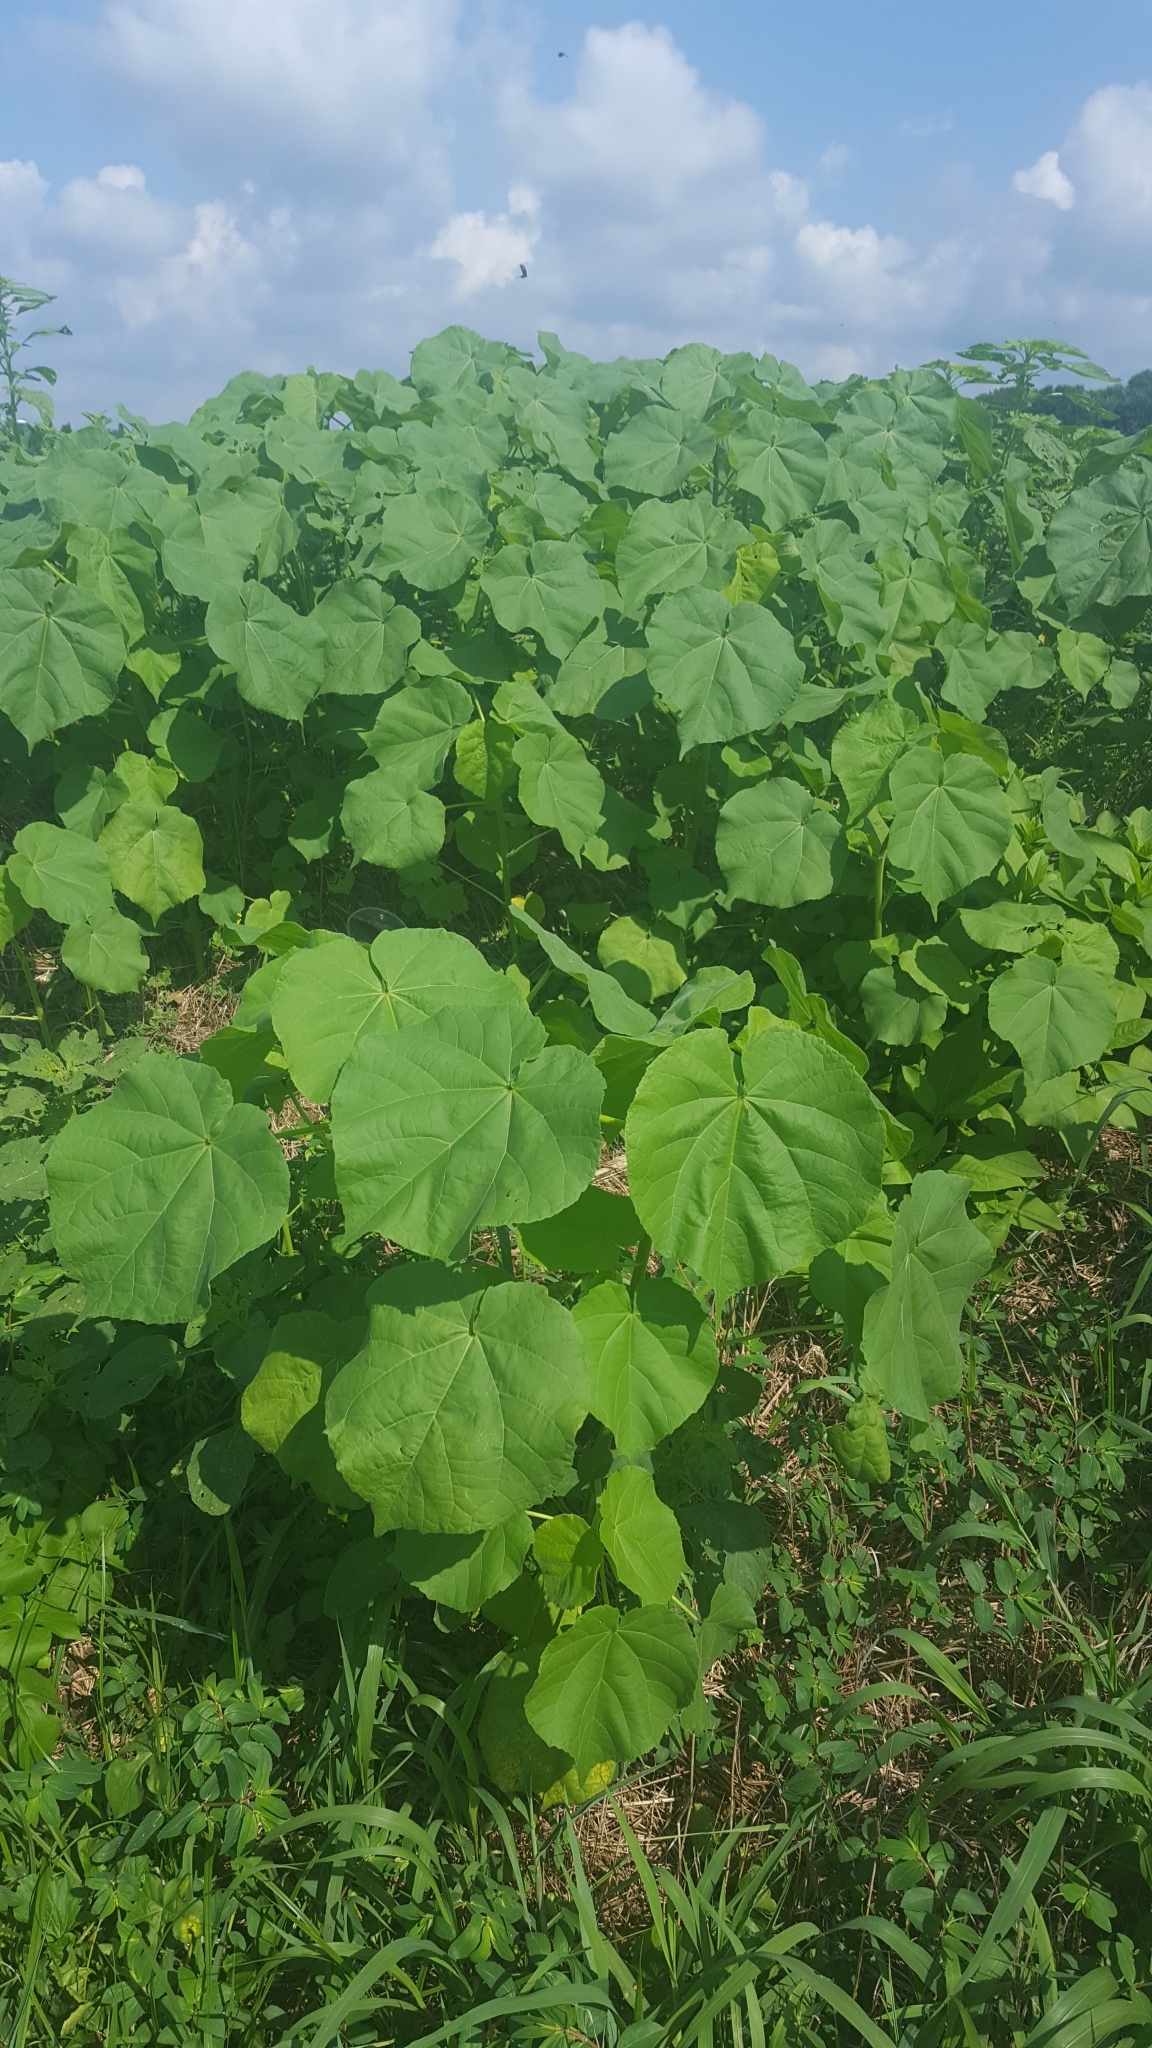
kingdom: Plantae
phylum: Tracheophyta
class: Magnoliopsida
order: Malvales
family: Malvaceae
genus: Abutilon
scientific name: Abutilon theophrasti
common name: Velvetleaf
